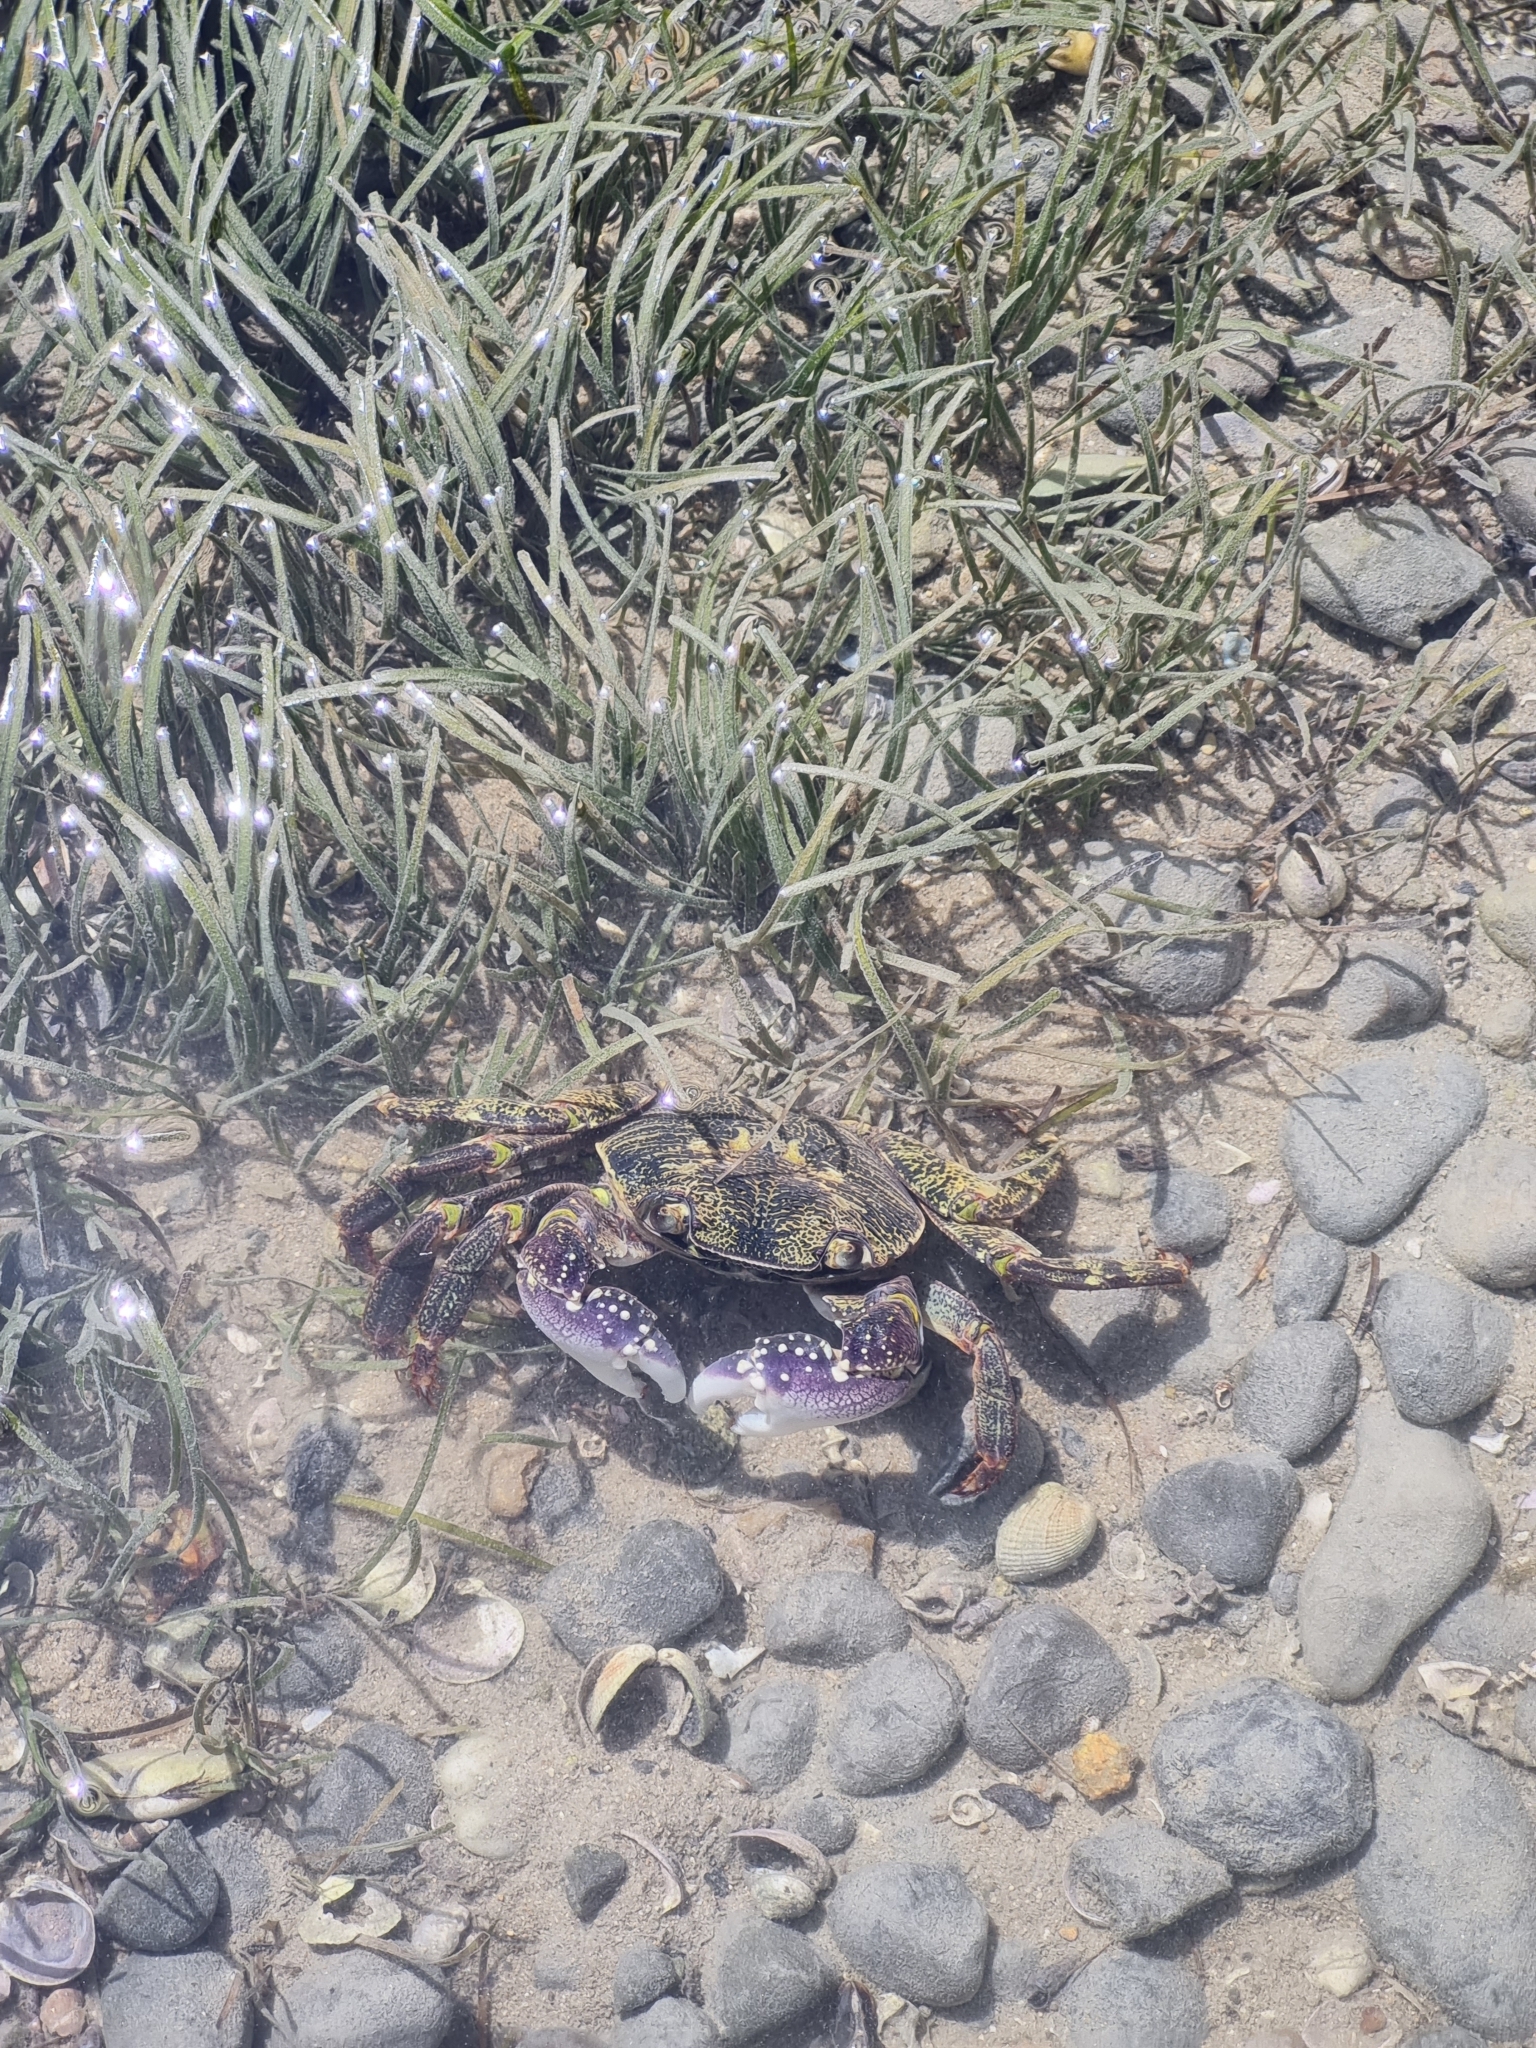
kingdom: Animalia
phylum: Arthropoda
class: Malacostraca
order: Decapoda
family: Grapsidae
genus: Leptograpsus
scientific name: Leptograpsus variegatus
